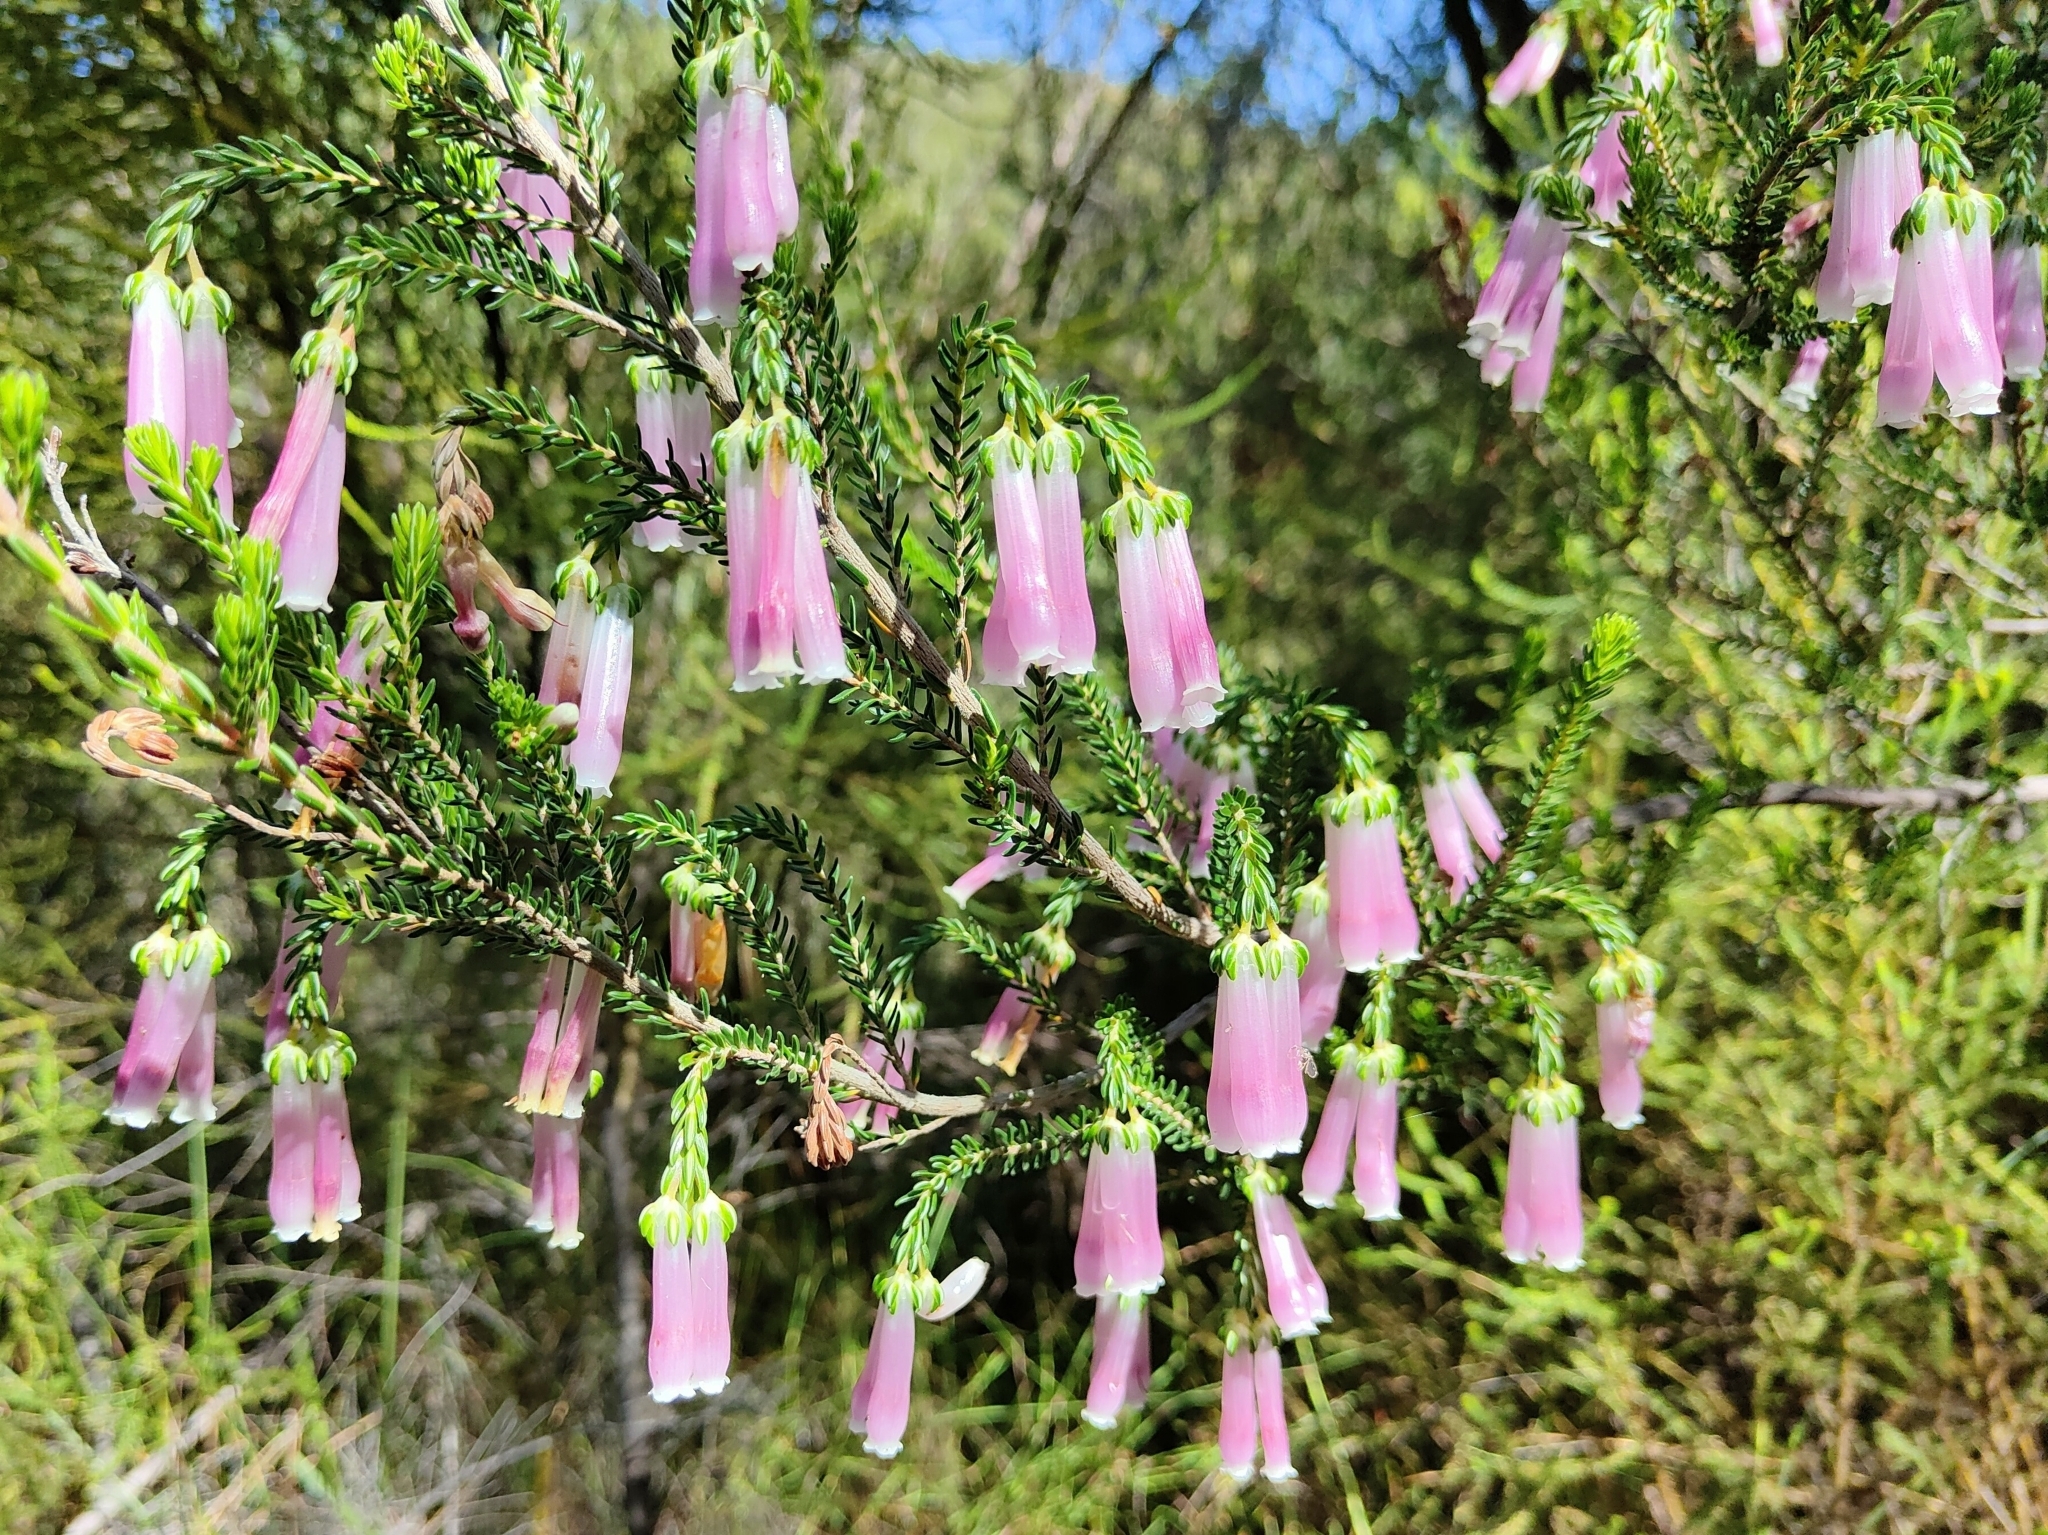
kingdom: Plantae
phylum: Tracheophyta
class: Magnoliopsida
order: Ericales
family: Ericaceae
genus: Erica
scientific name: Erica diaphana
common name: Heath
